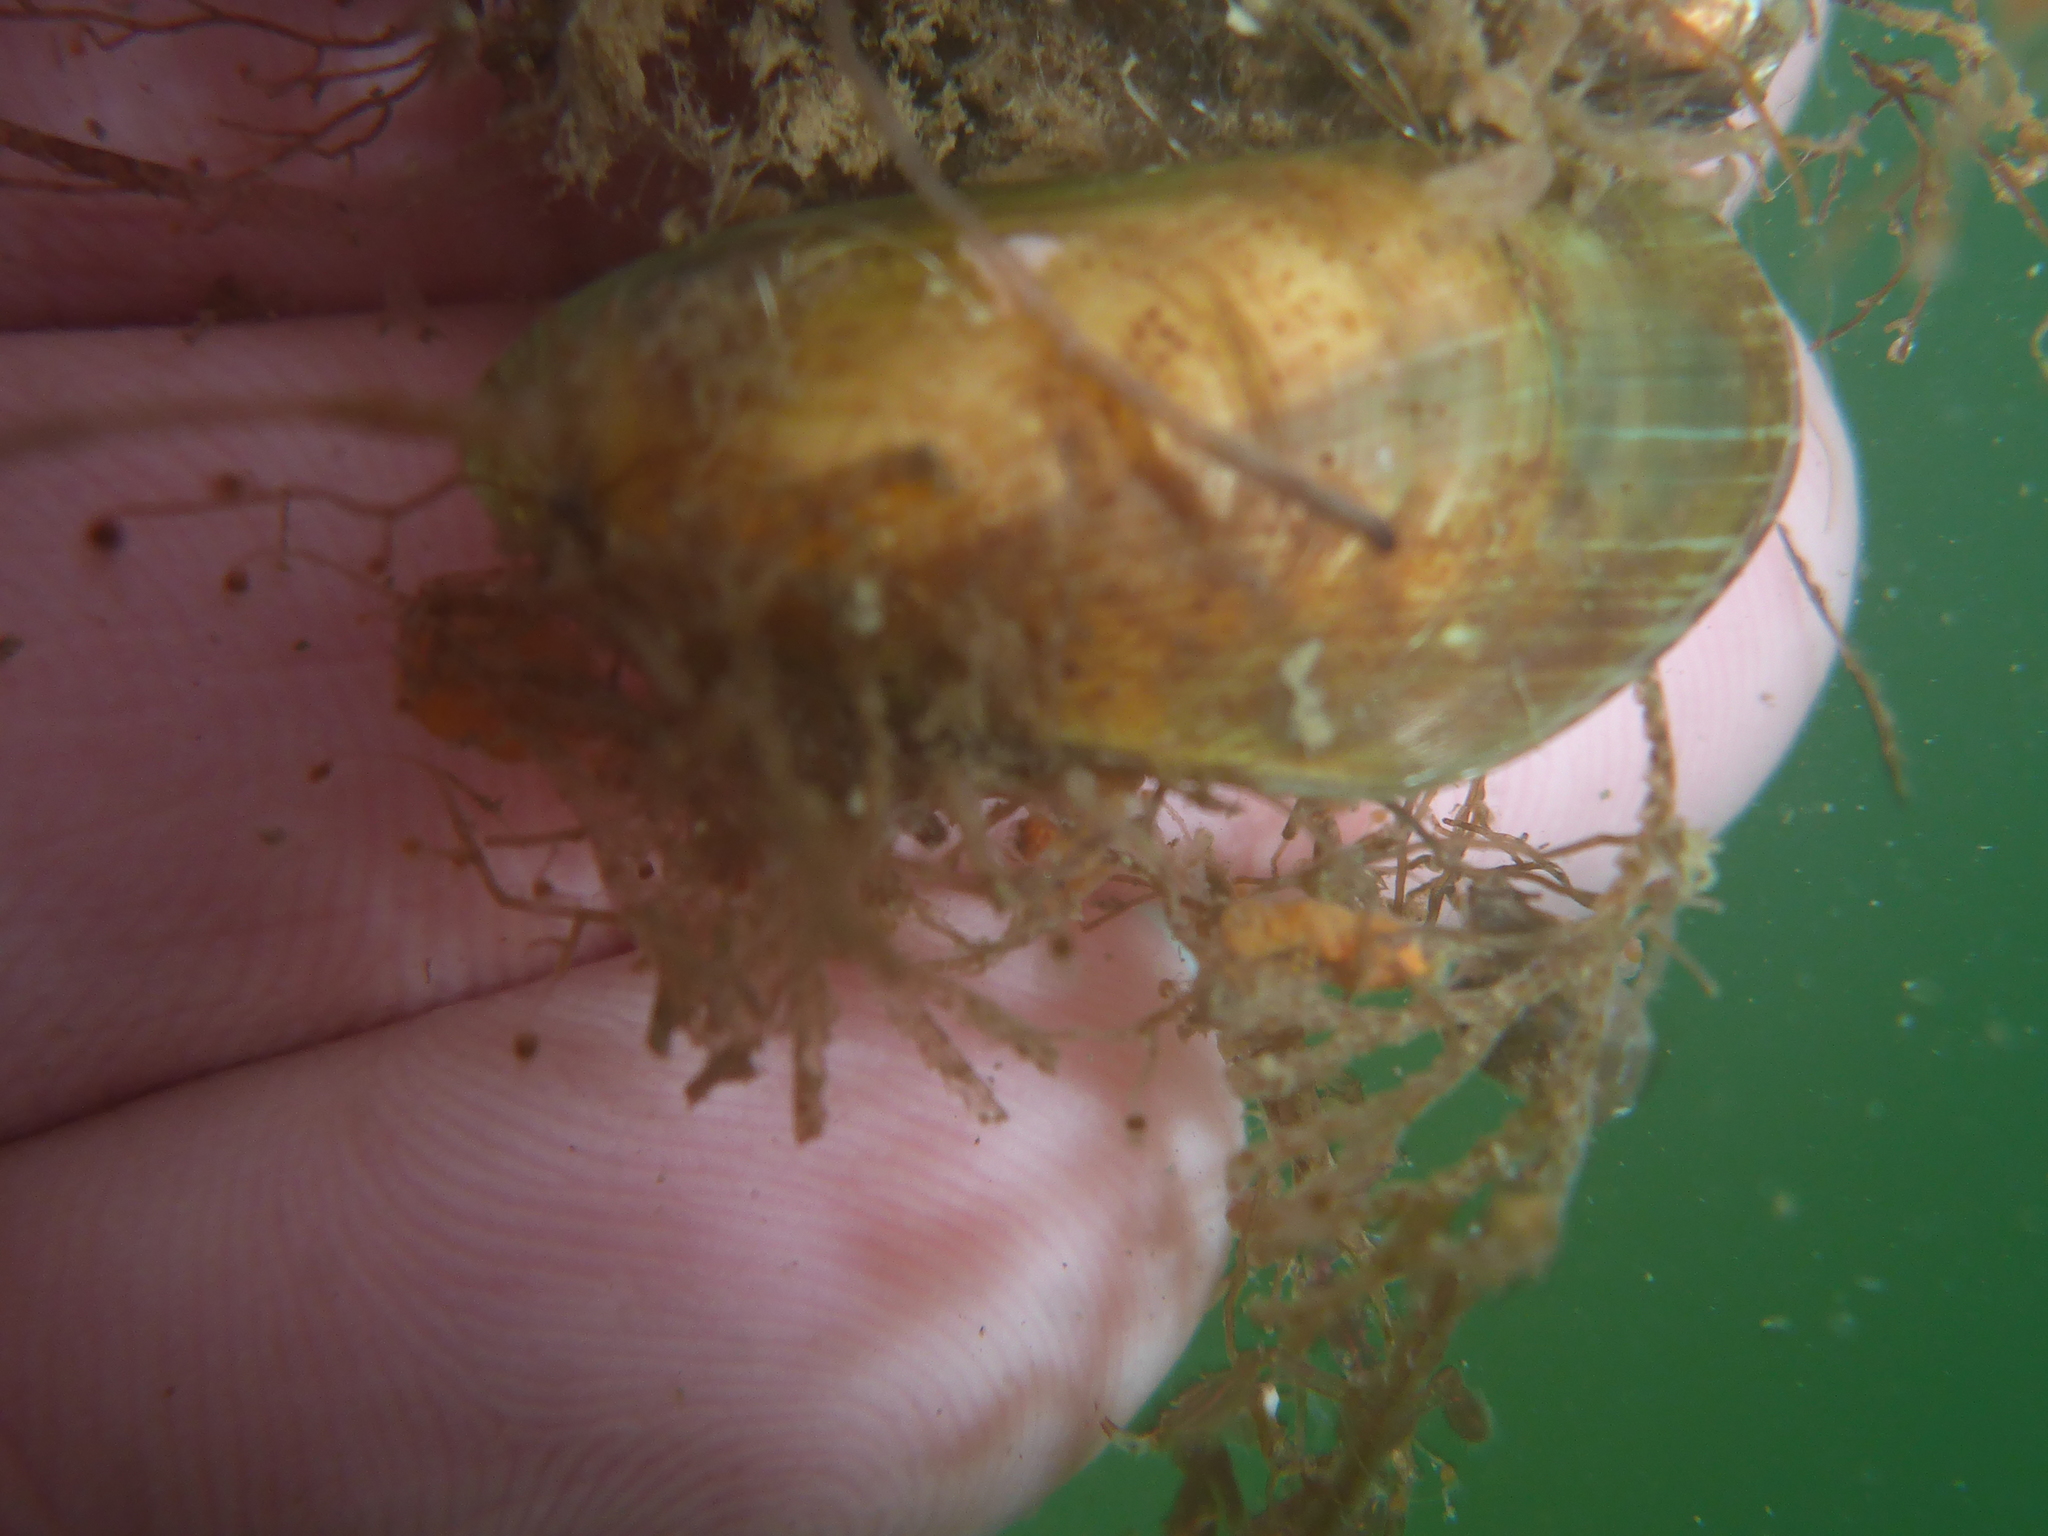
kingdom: Animalia
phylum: Mollusca
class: Bivalvia
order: Mytilida
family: Mytilidae
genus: Arcuatula
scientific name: Arcuatula senhousia
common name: Asian mussel
